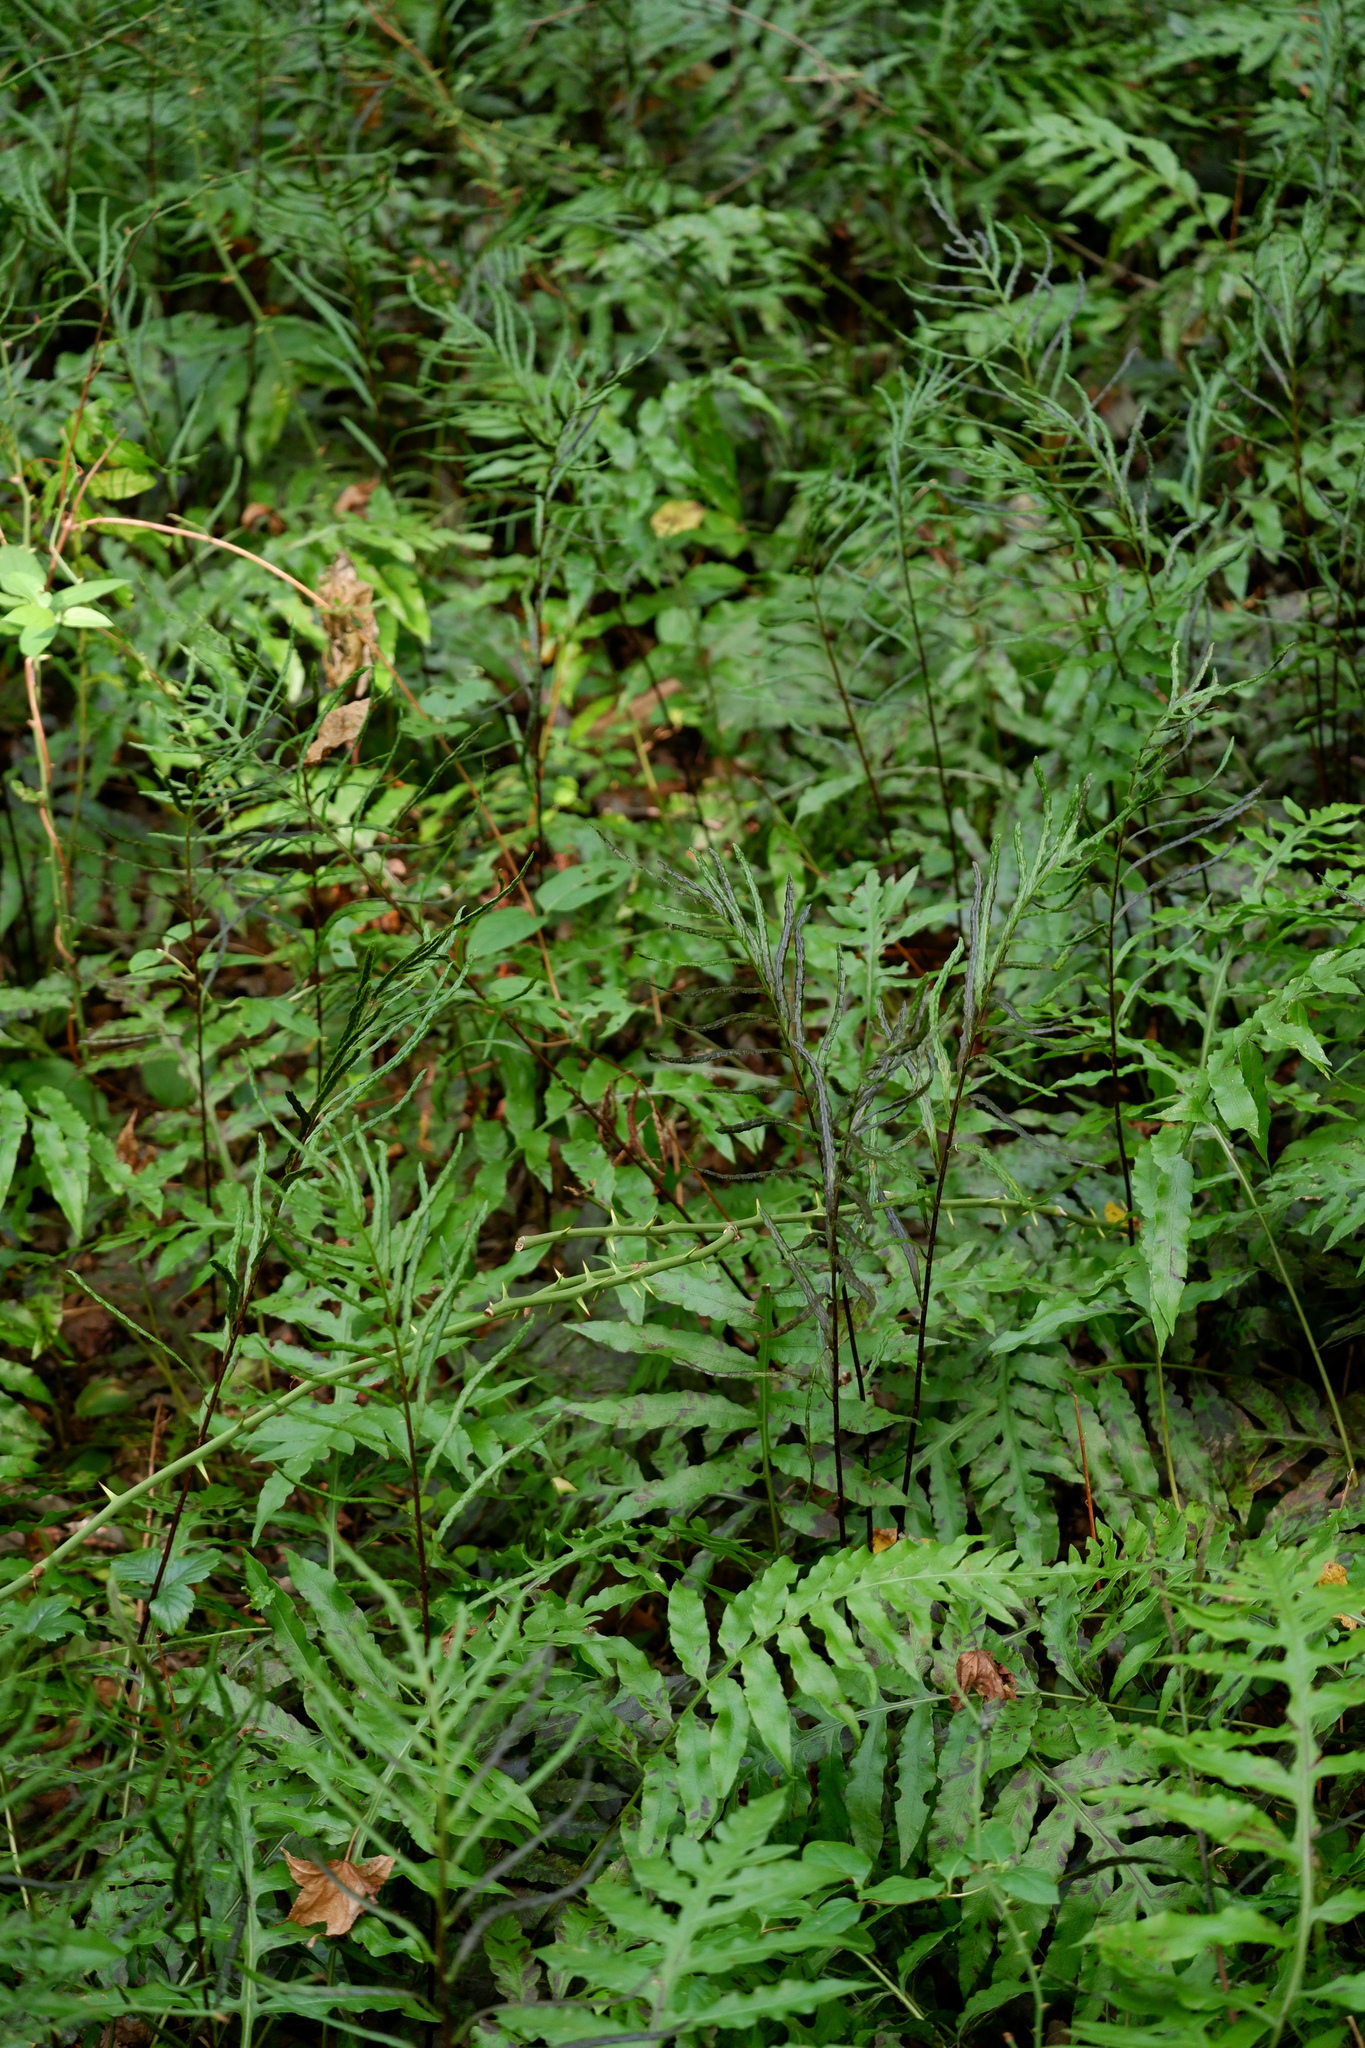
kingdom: Plantae
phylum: Tracheophyta
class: Polypodiopsida
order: Polypodiales
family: Blechnaceae
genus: Lorinseria
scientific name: Lorinseria areolata
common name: Dwarf chain fern
